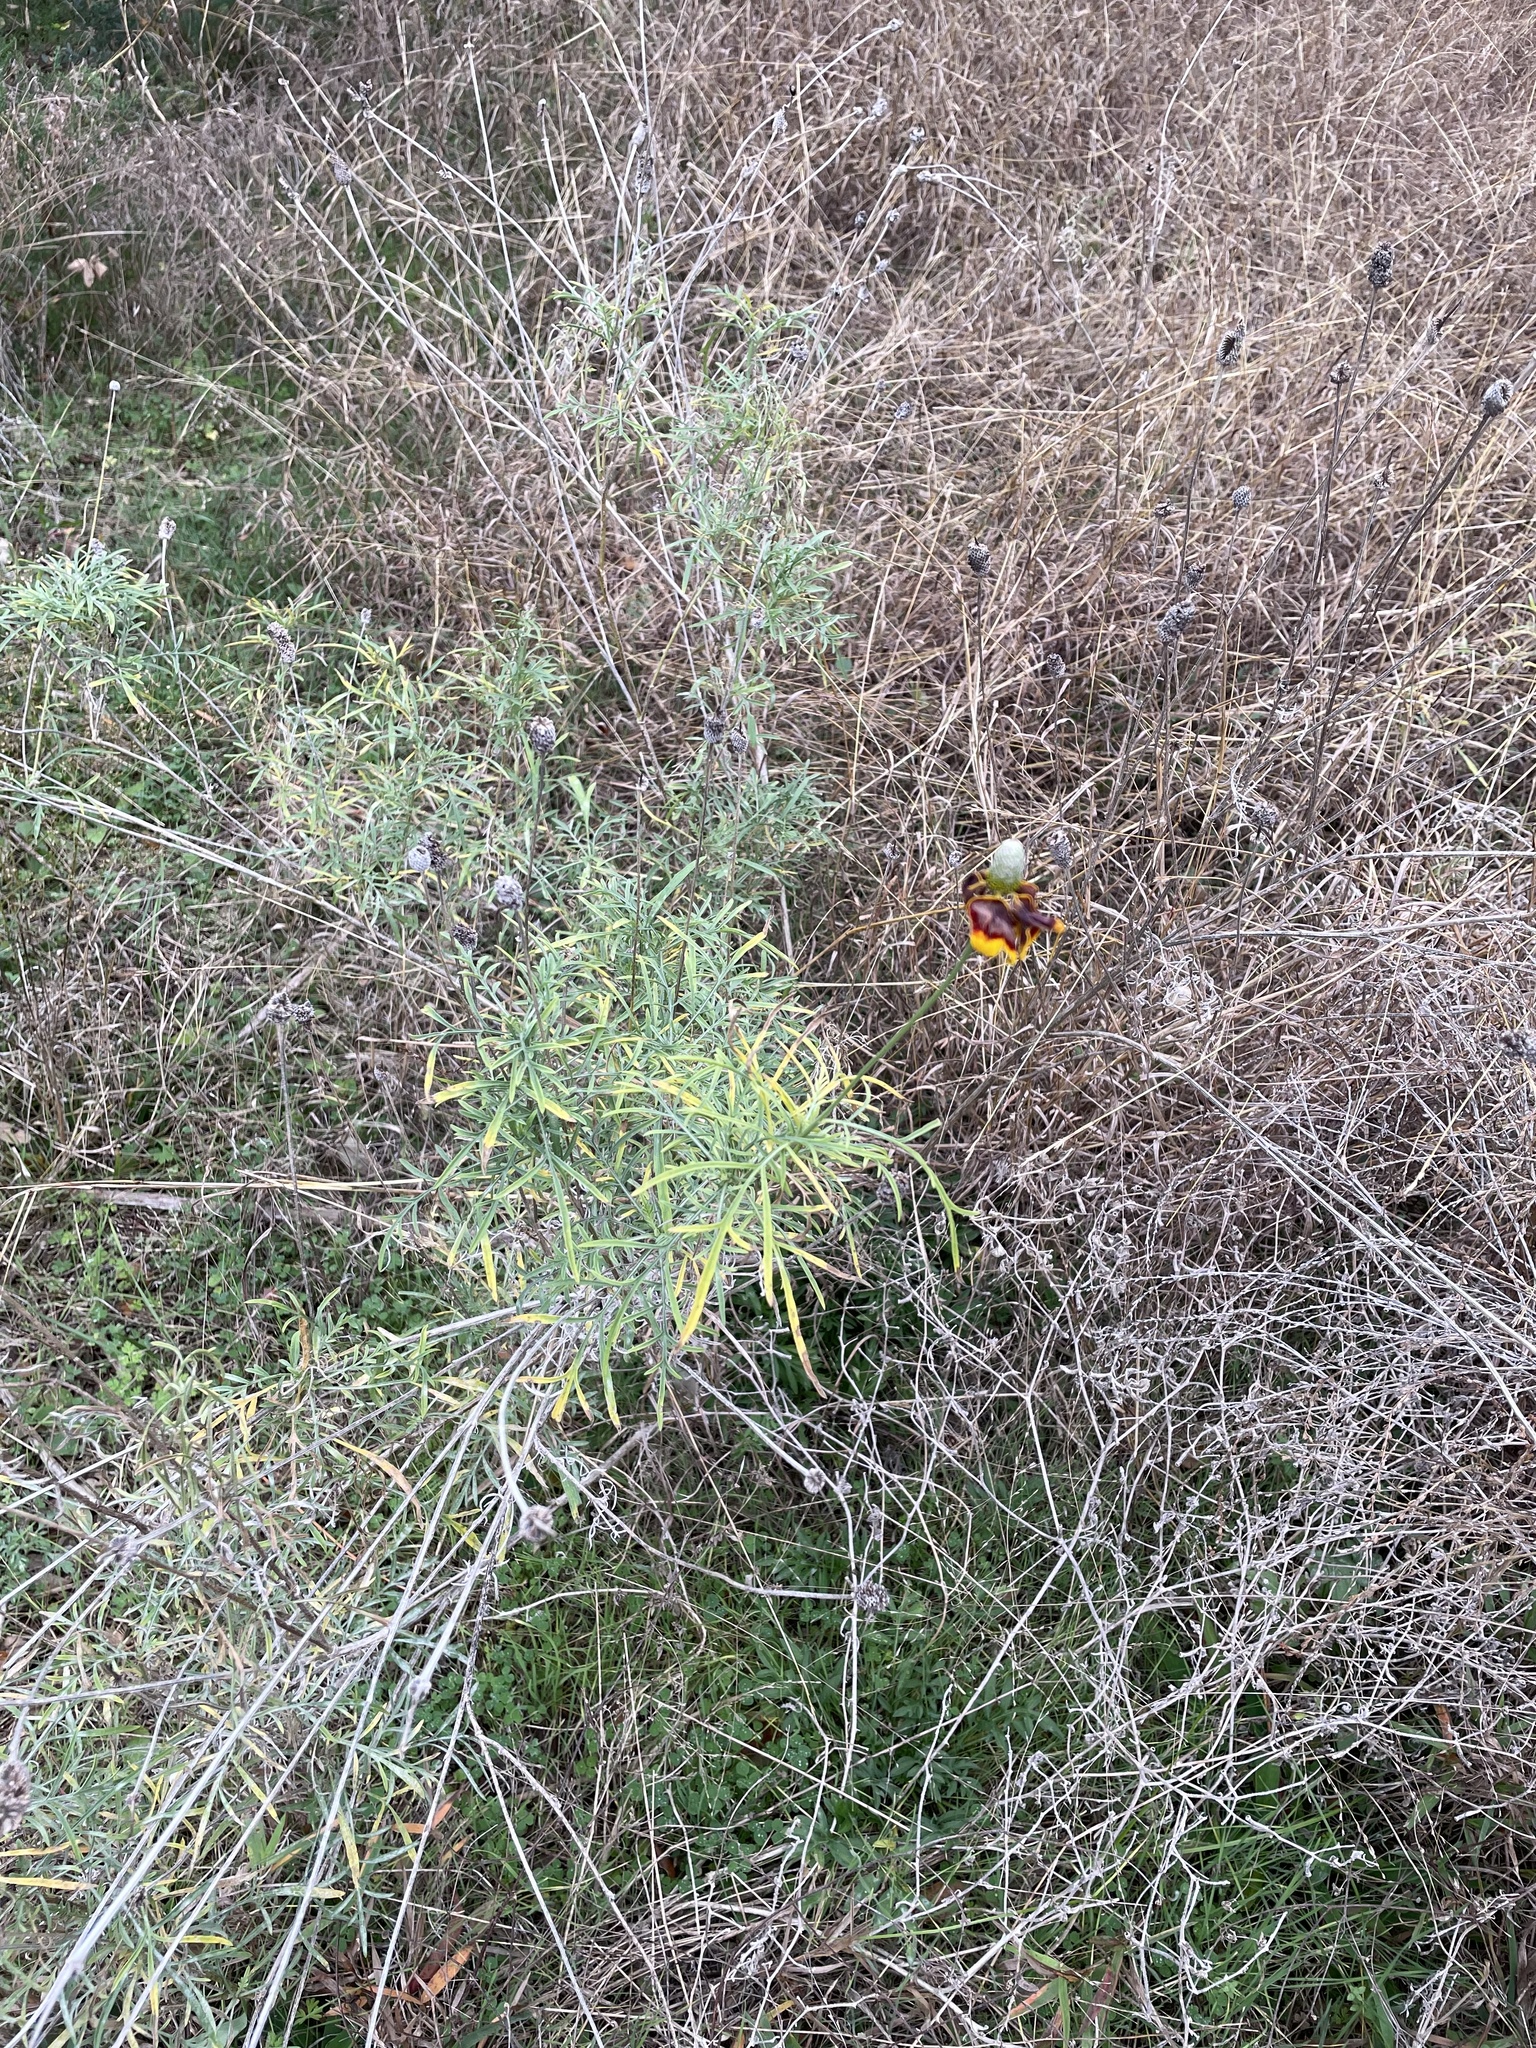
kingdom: Plantae
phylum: Tracheophyta
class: Magnoliopsida
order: Asterales
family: Asteraceae
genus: Ratibida
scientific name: Ratibida columnifera
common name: Prairie coneflower
